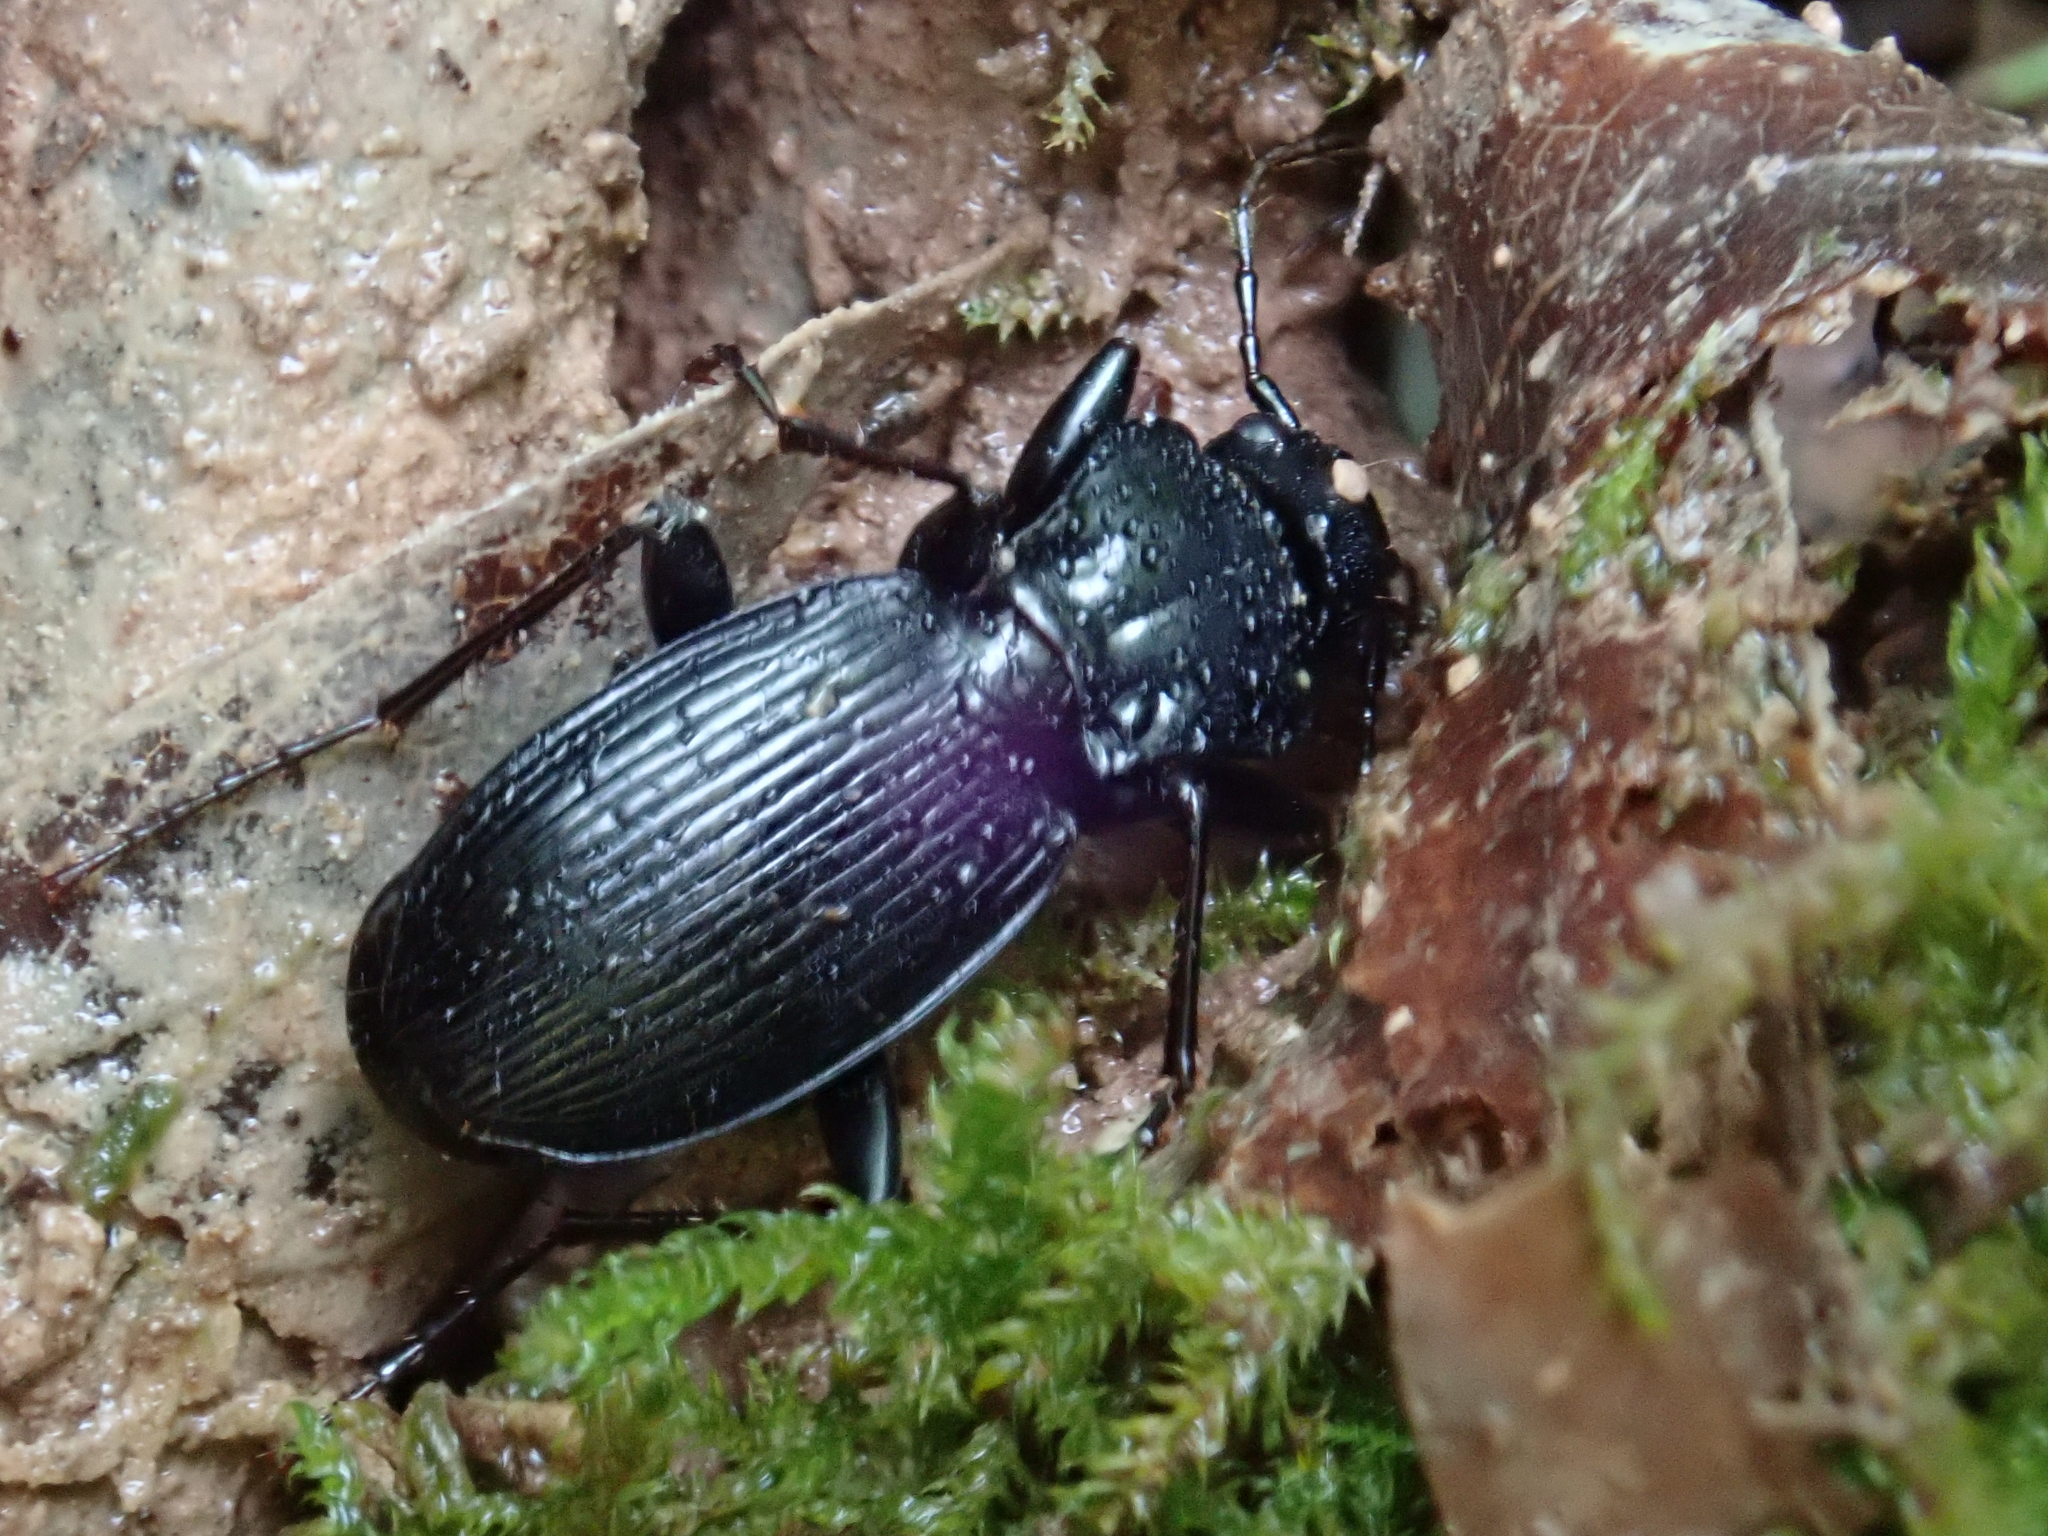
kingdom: Animalia
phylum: Arthropoda
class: Insecta
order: Coleoptera
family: Carabidae
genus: Pterostichus
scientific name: Pterostichus fasciatopunctatus
